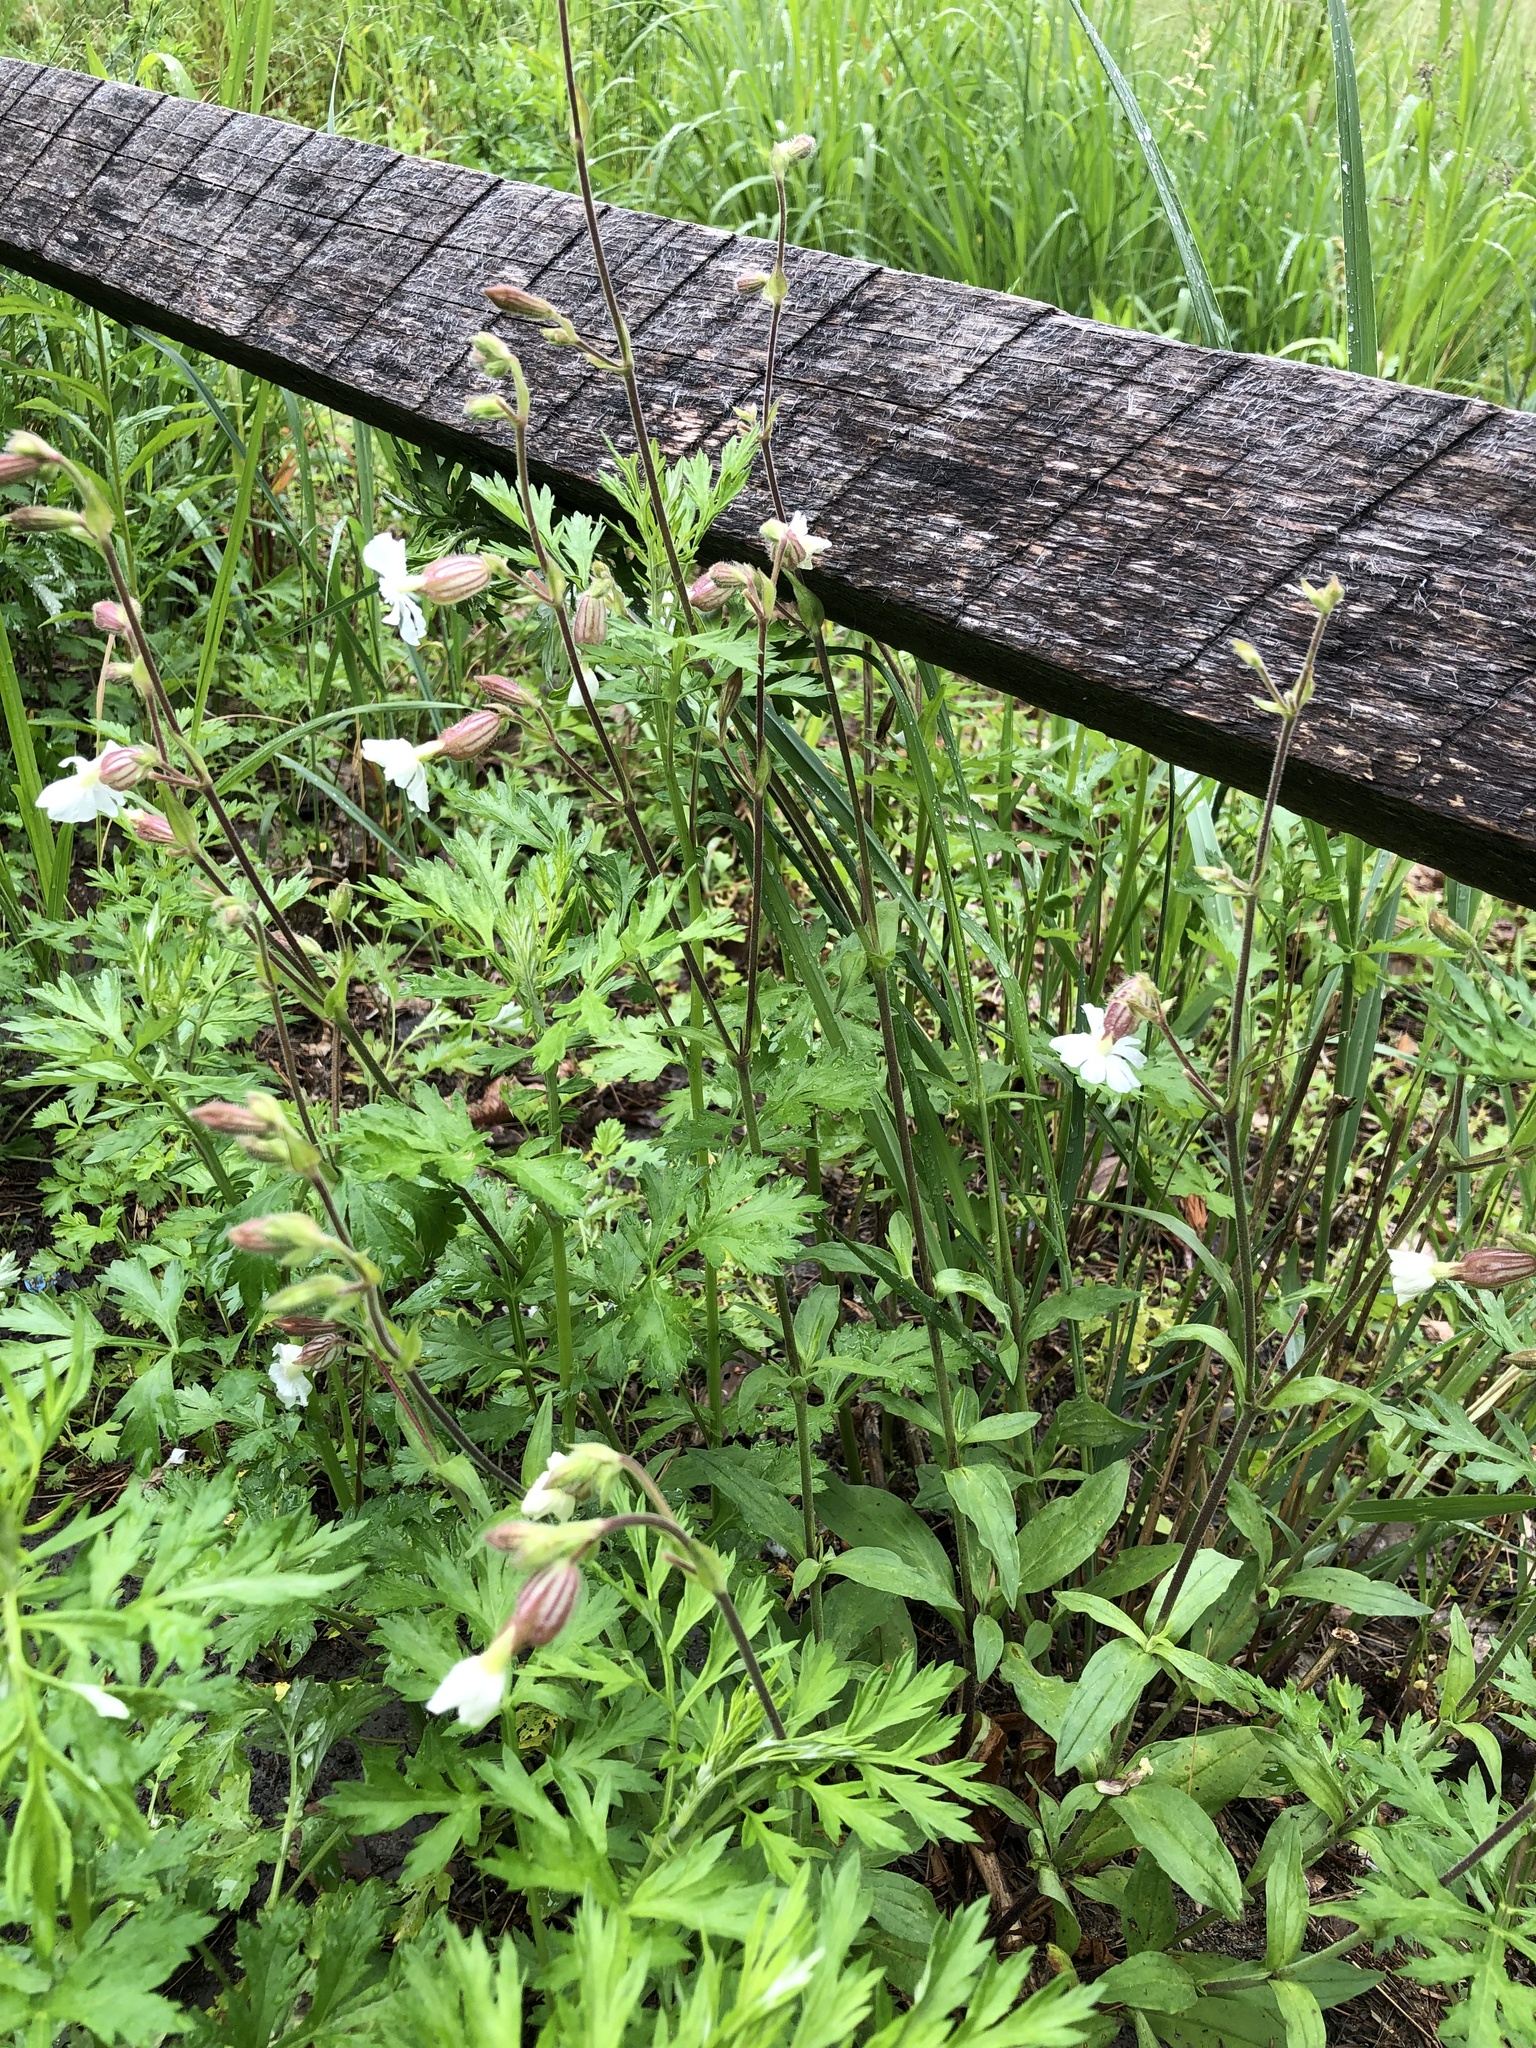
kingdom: Plantae
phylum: Tracheophyta
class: Magnoliopsida
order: Caryophyllales
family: Caryophyllaceae
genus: Silene
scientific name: Silene latifolia
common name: White campion
